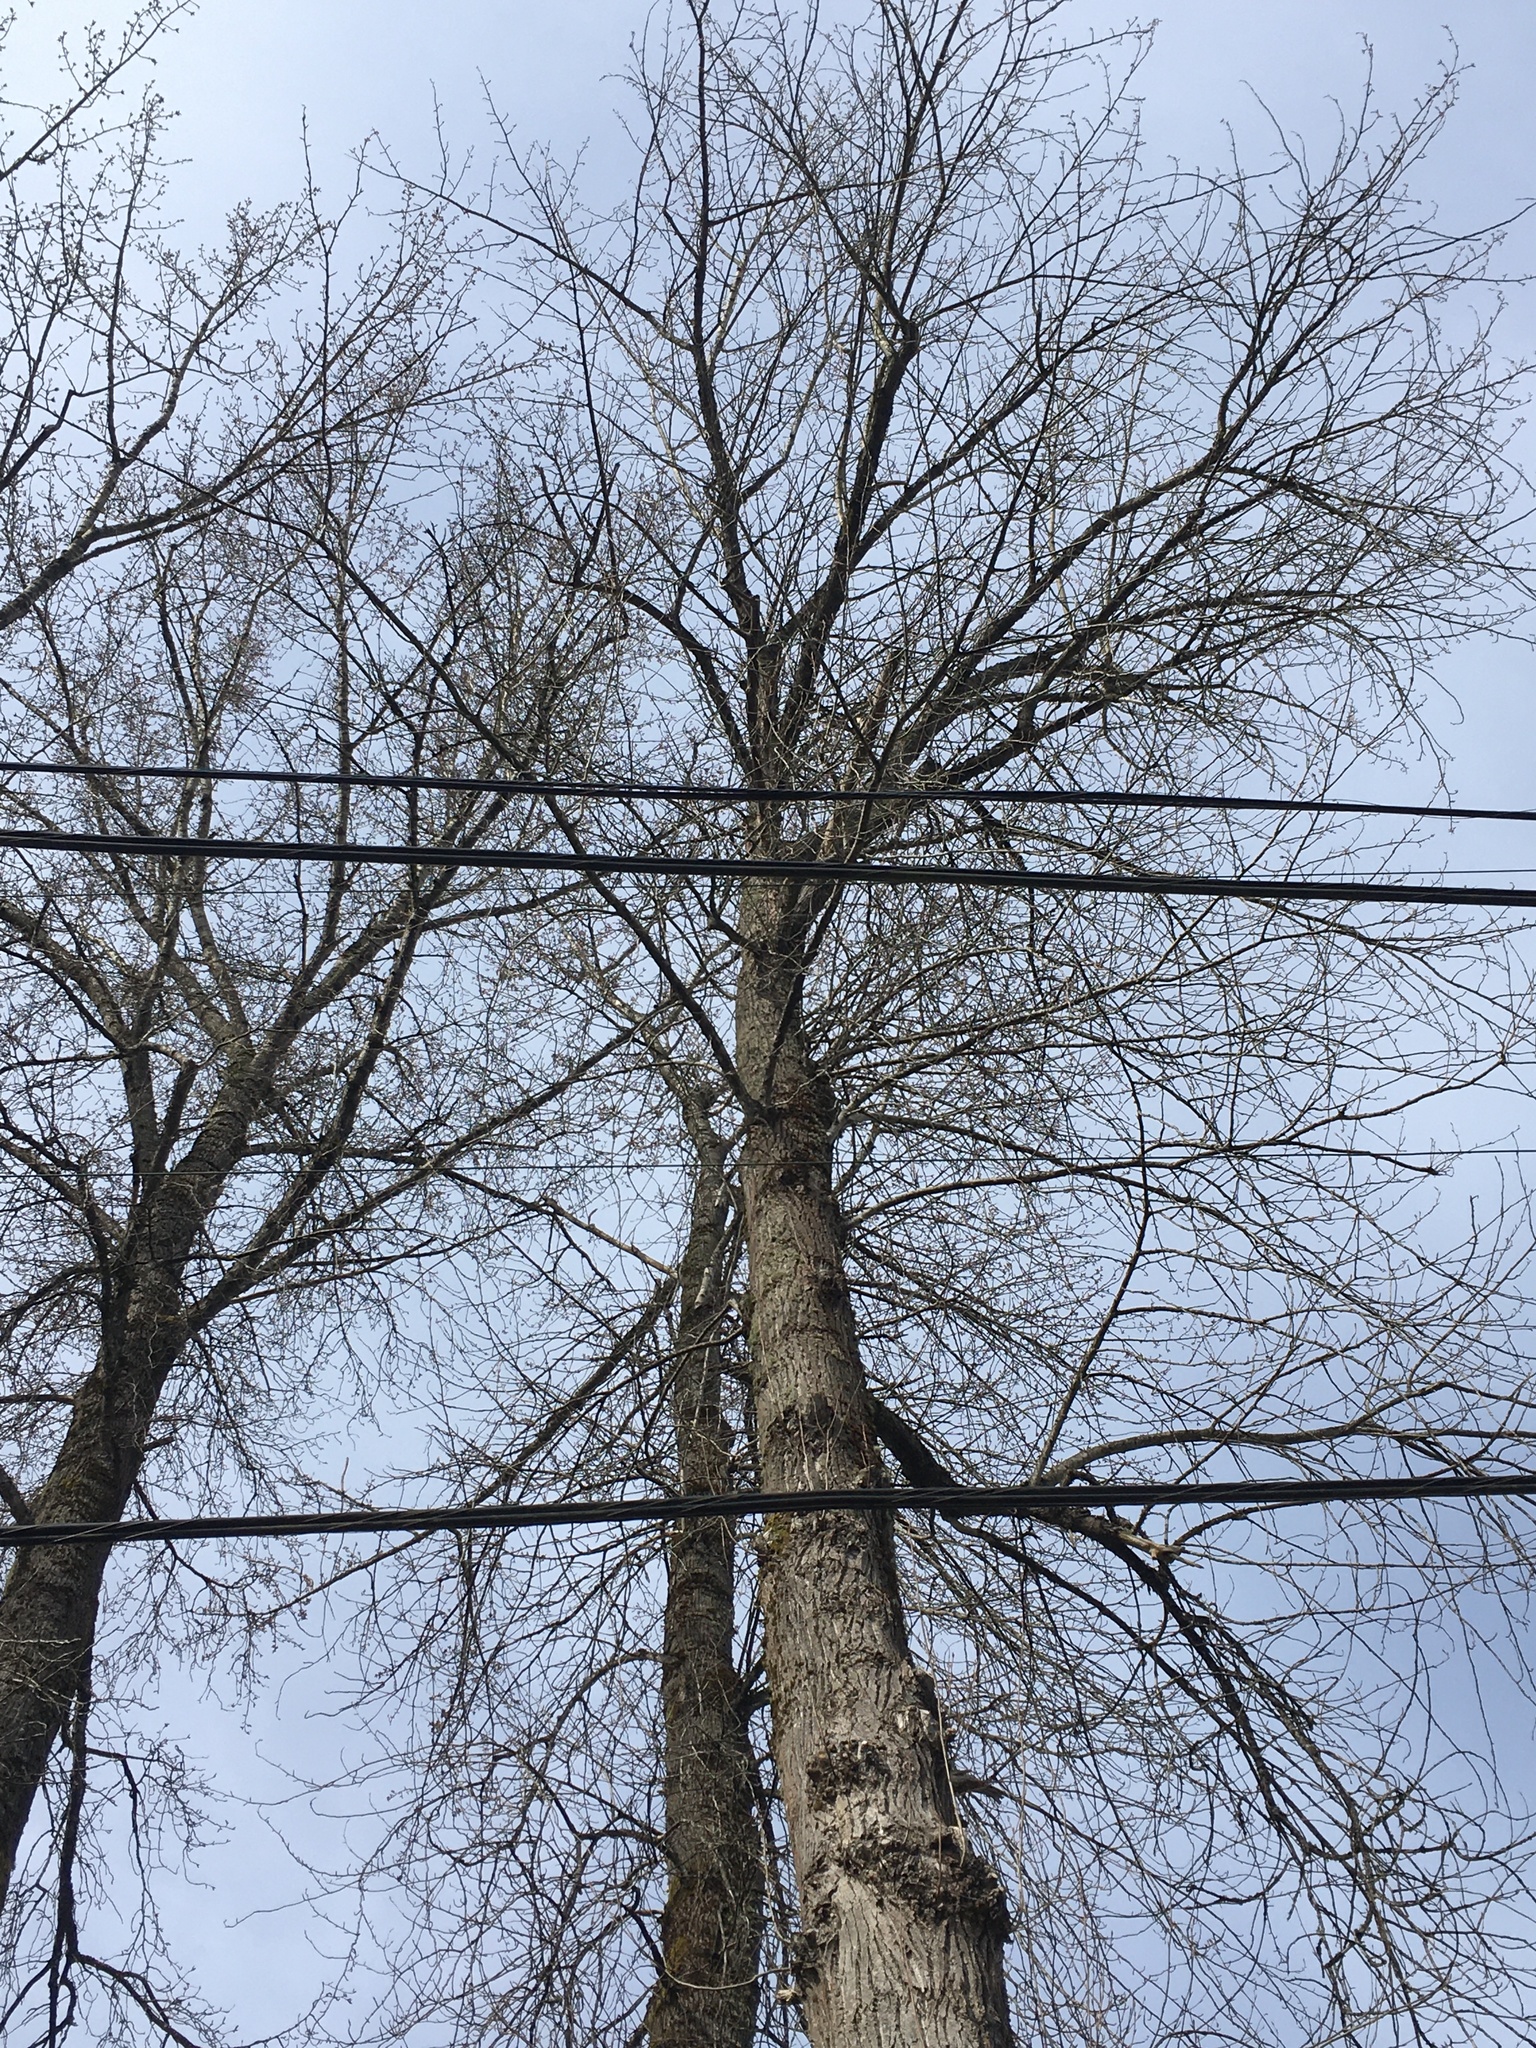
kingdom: Plantae
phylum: Tracheophyta
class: Magnoliopsida
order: Malpighiales
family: Salicaceae
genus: Populus
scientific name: Populus trichocarpa
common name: Black cottonwood
